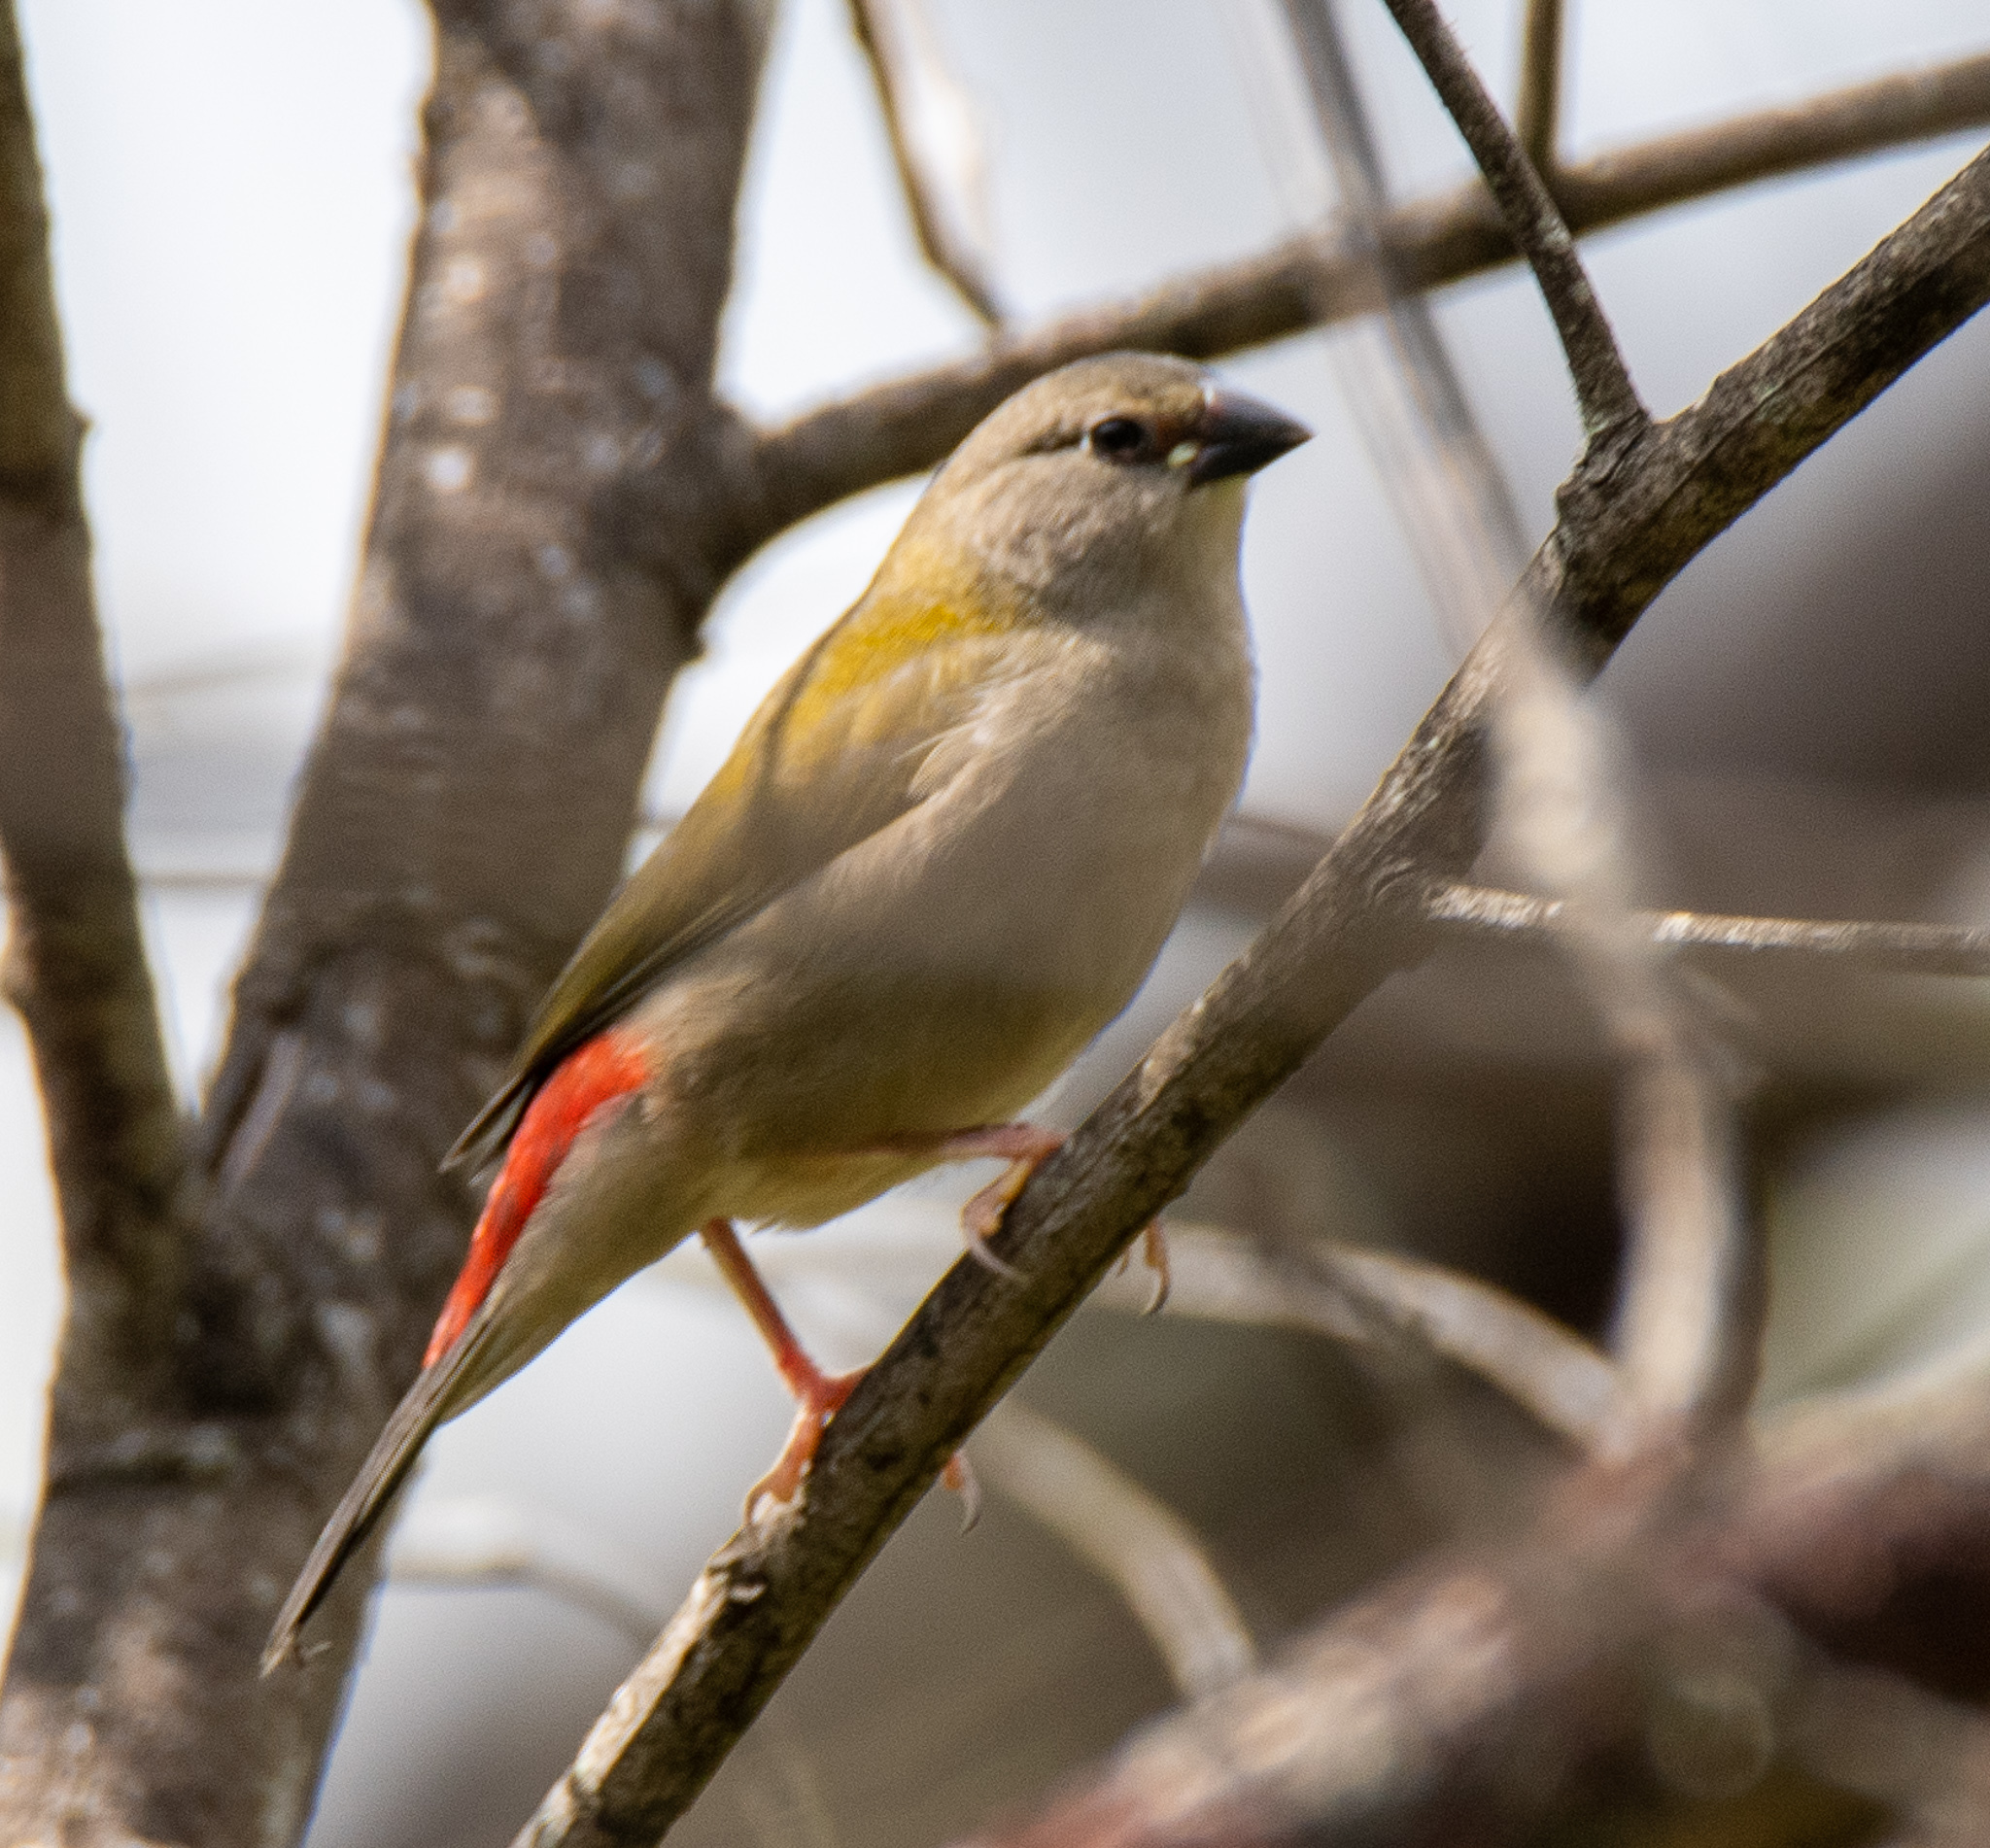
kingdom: Animalia
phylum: Chordata
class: Aves
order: Passeriformes
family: Estrildidae
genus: Neochmia
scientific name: Neochmia temporalis
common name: Red-browed finch
